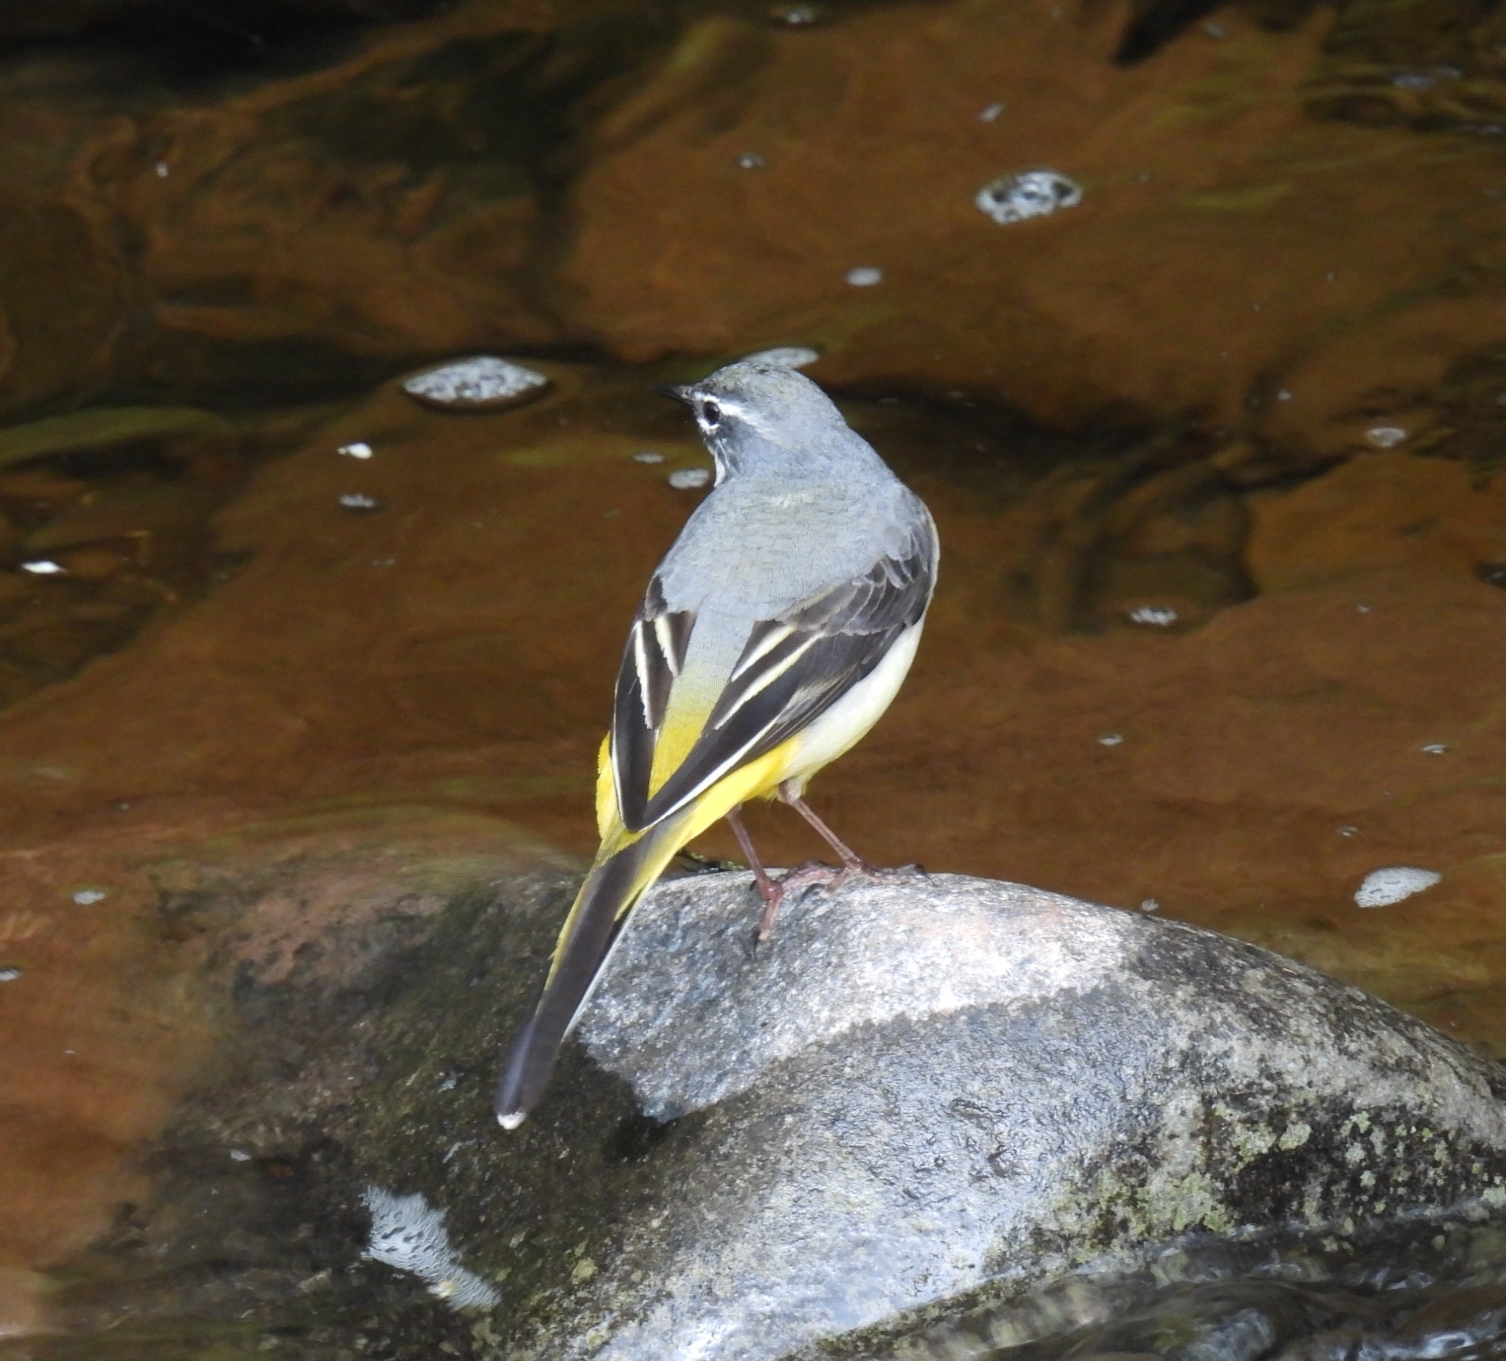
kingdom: Animalia
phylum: Chordata
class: Aves
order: Passeriformes
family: Motacillidae
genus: Motacilla
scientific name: Motacilla cinerea
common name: Grey wagtail
